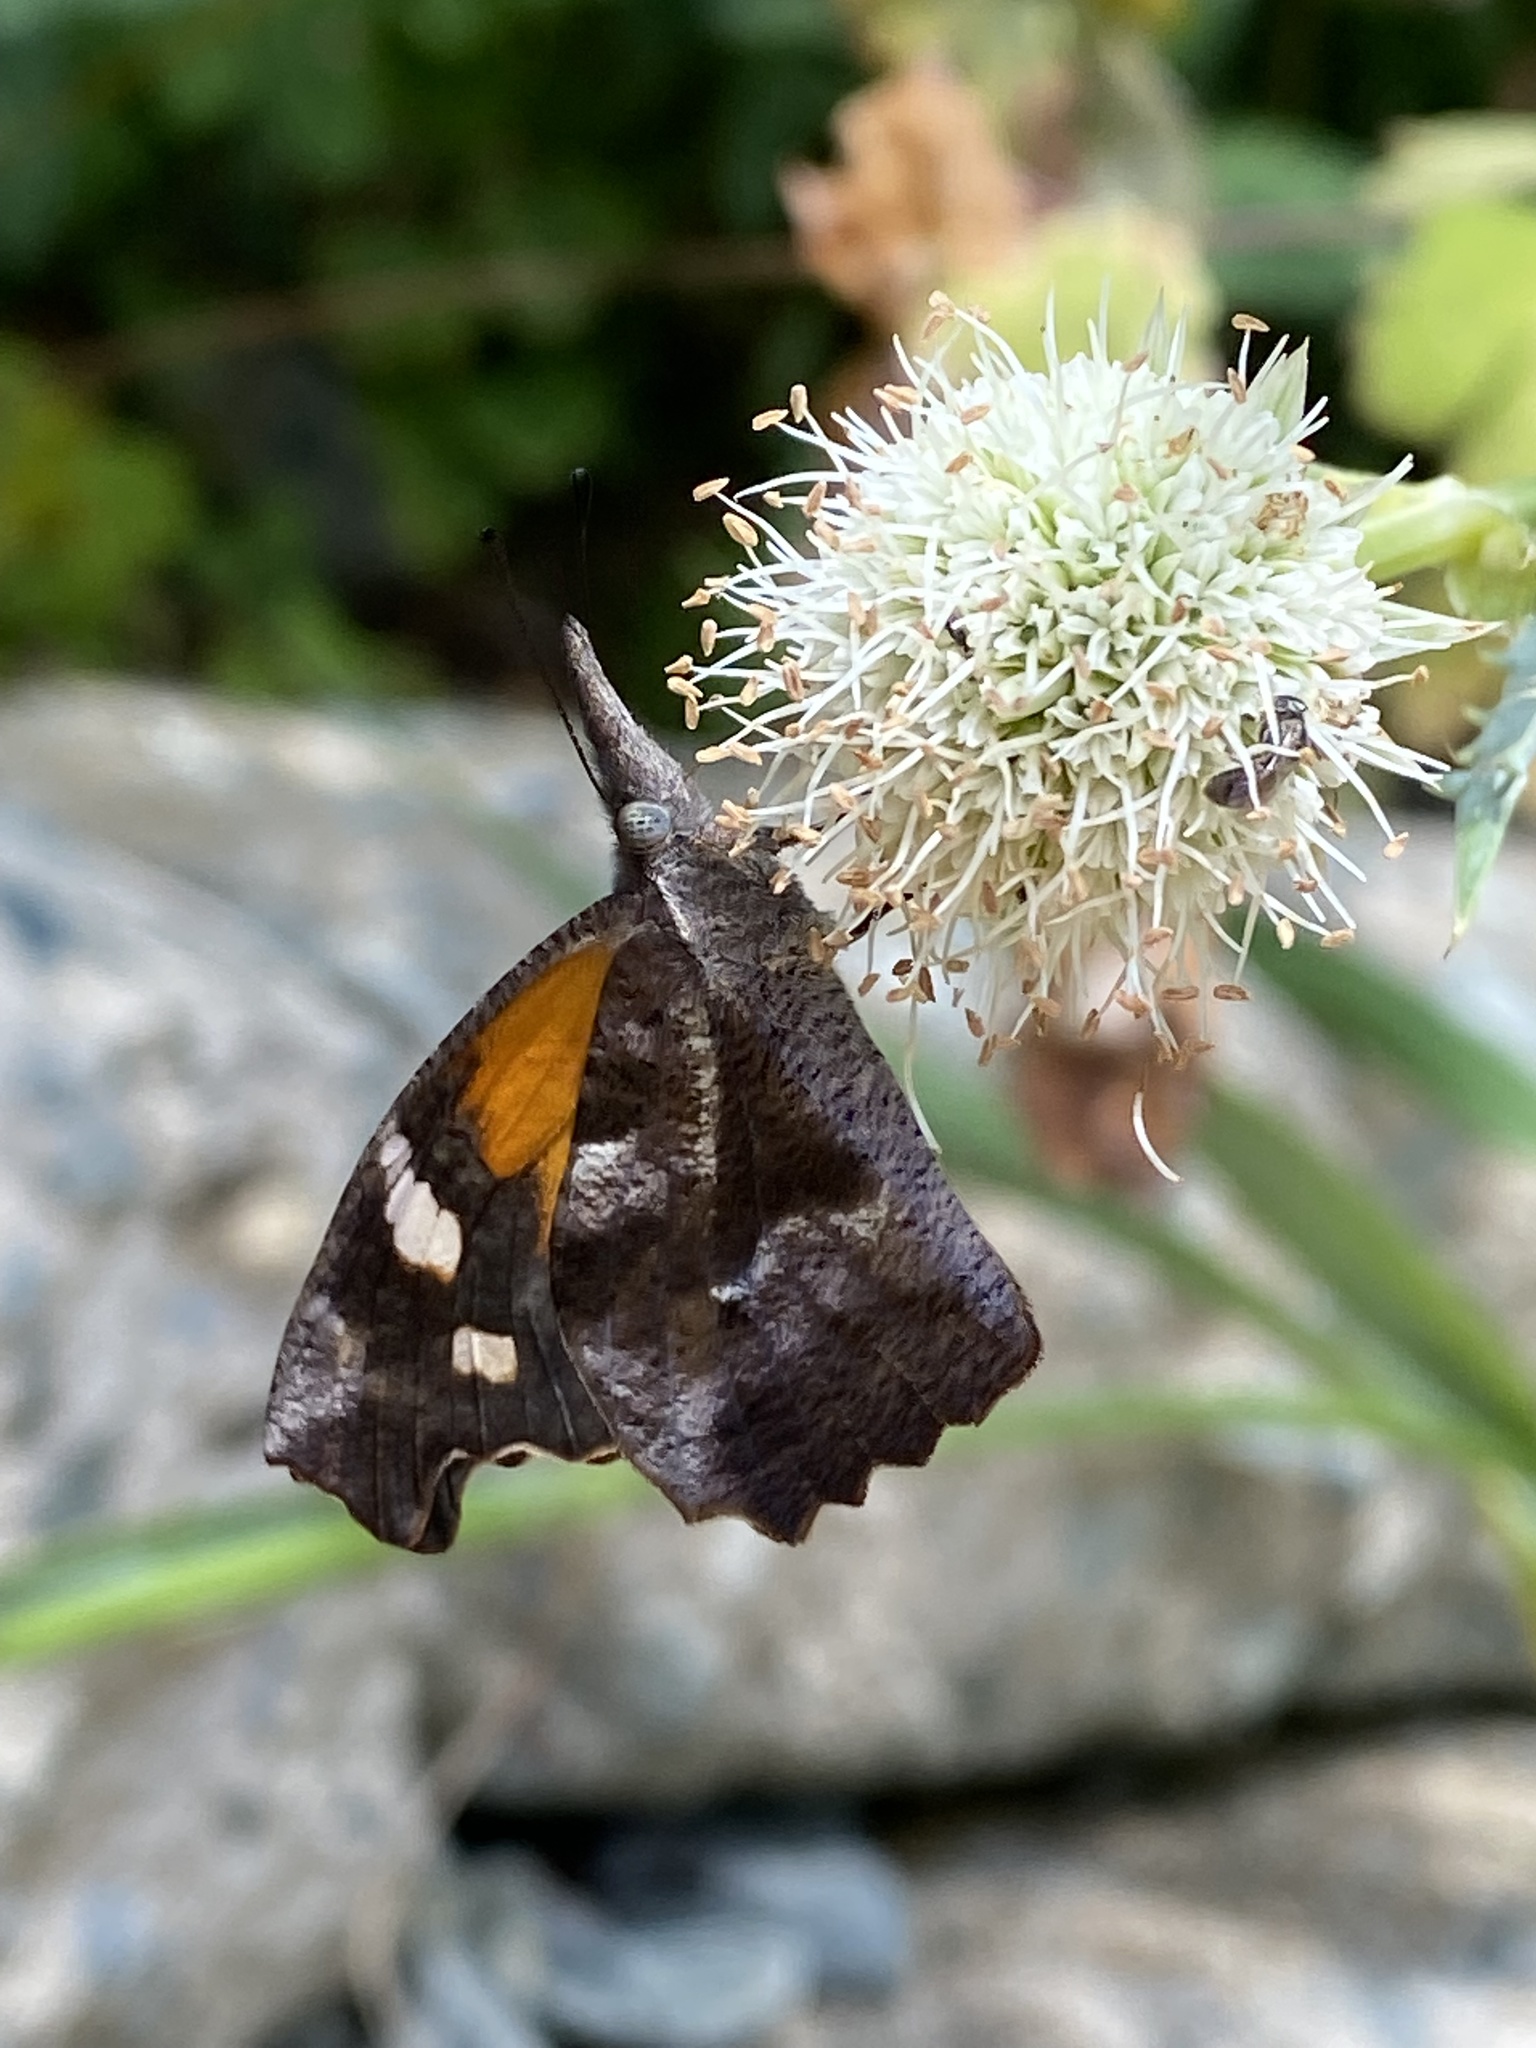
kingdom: Animalia
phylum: Arthropoda
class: Insecta
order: Lepidoptera
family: Nymphalidae
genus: Libytheana
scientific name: Libytheana carinenta
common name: American snout
